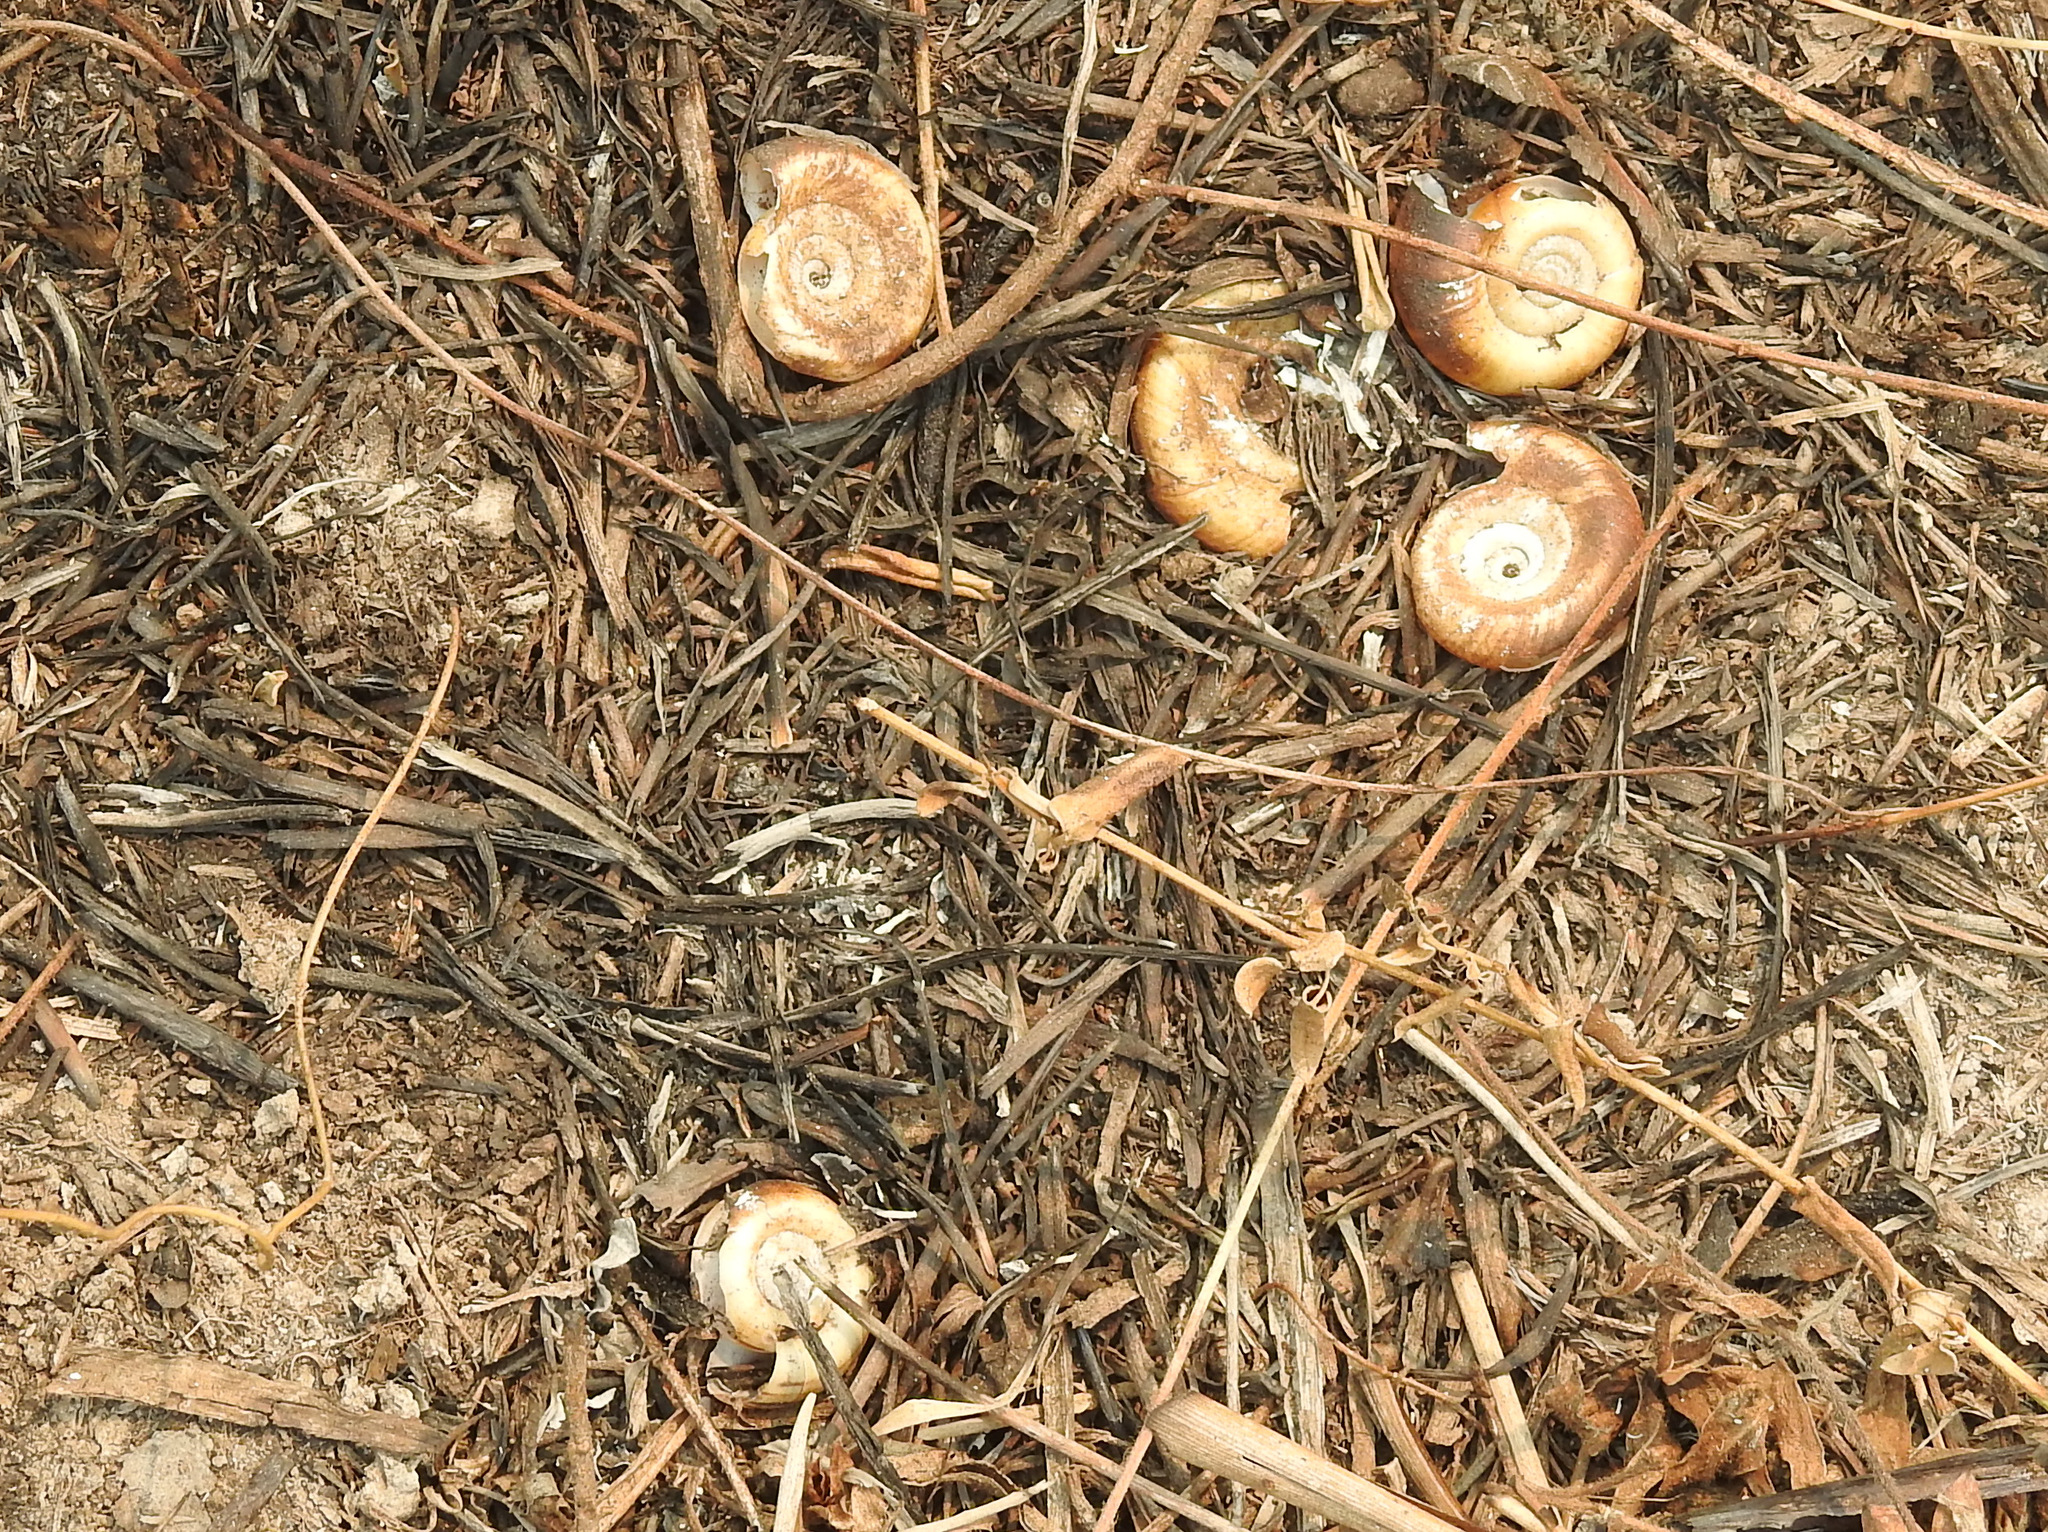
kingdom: Animalia
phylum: Mollusca
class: Gastropoda
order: Architaenioglossa
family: Ampullariidae
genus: Marisa
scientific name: Marisa planogyra
